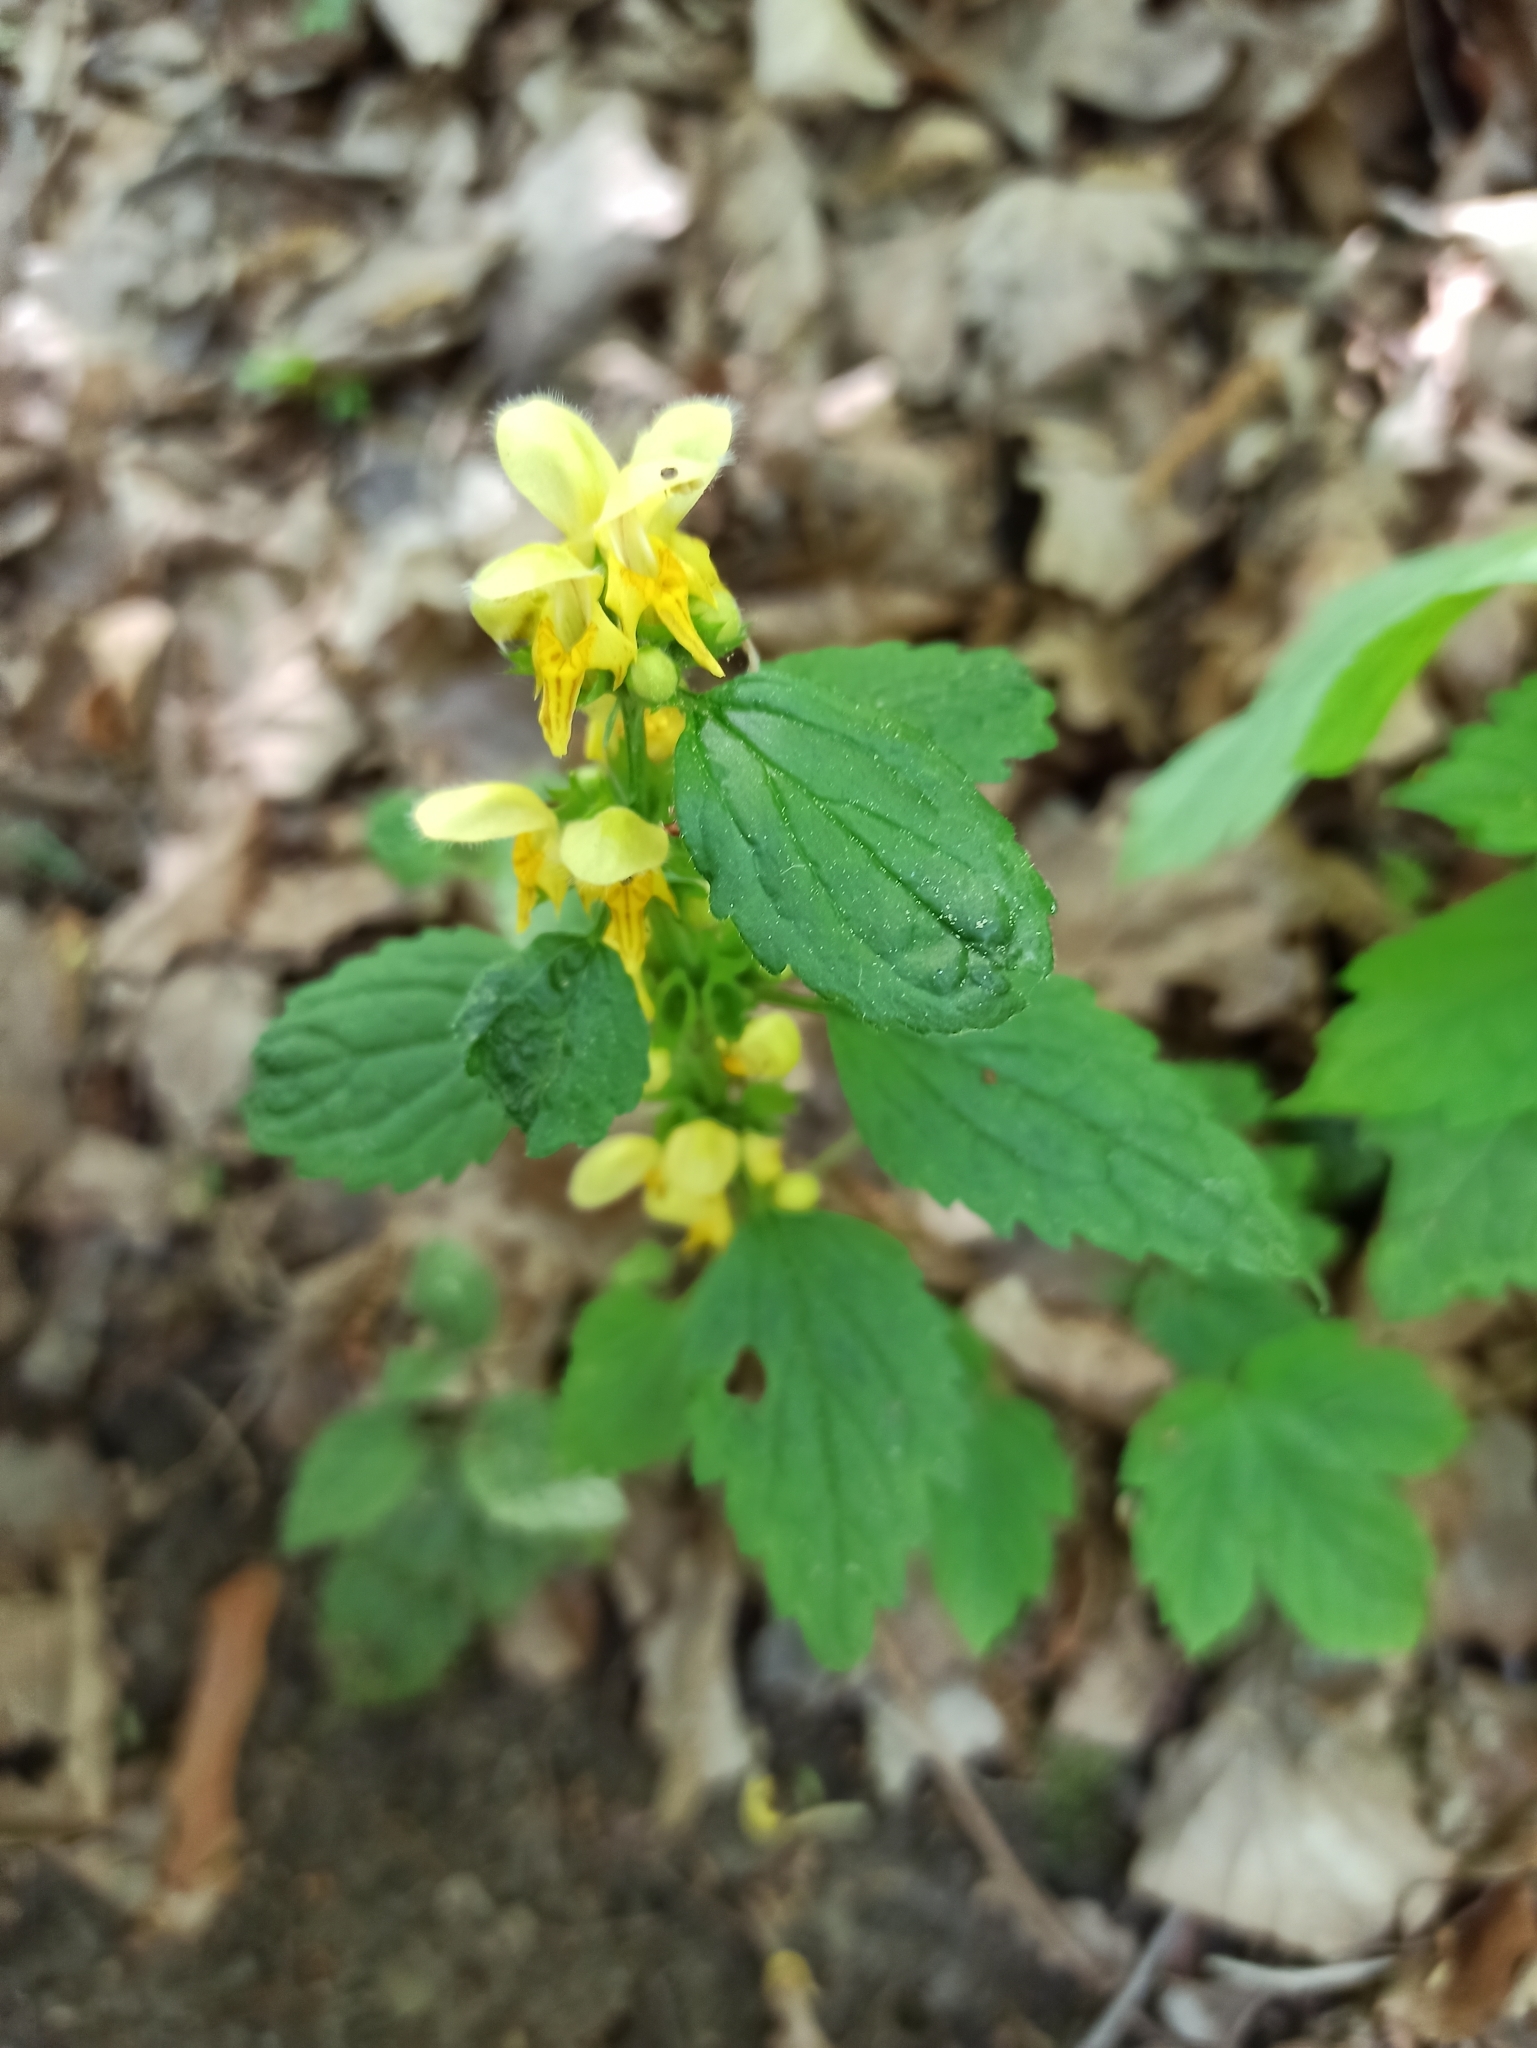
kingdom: Plantae
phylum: Tracheophyta
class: Magnoliopsida
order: Lamiales
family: Lamiaceae
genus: Lamium
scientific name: Lamium galeobdolon
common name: Yellow archangel
